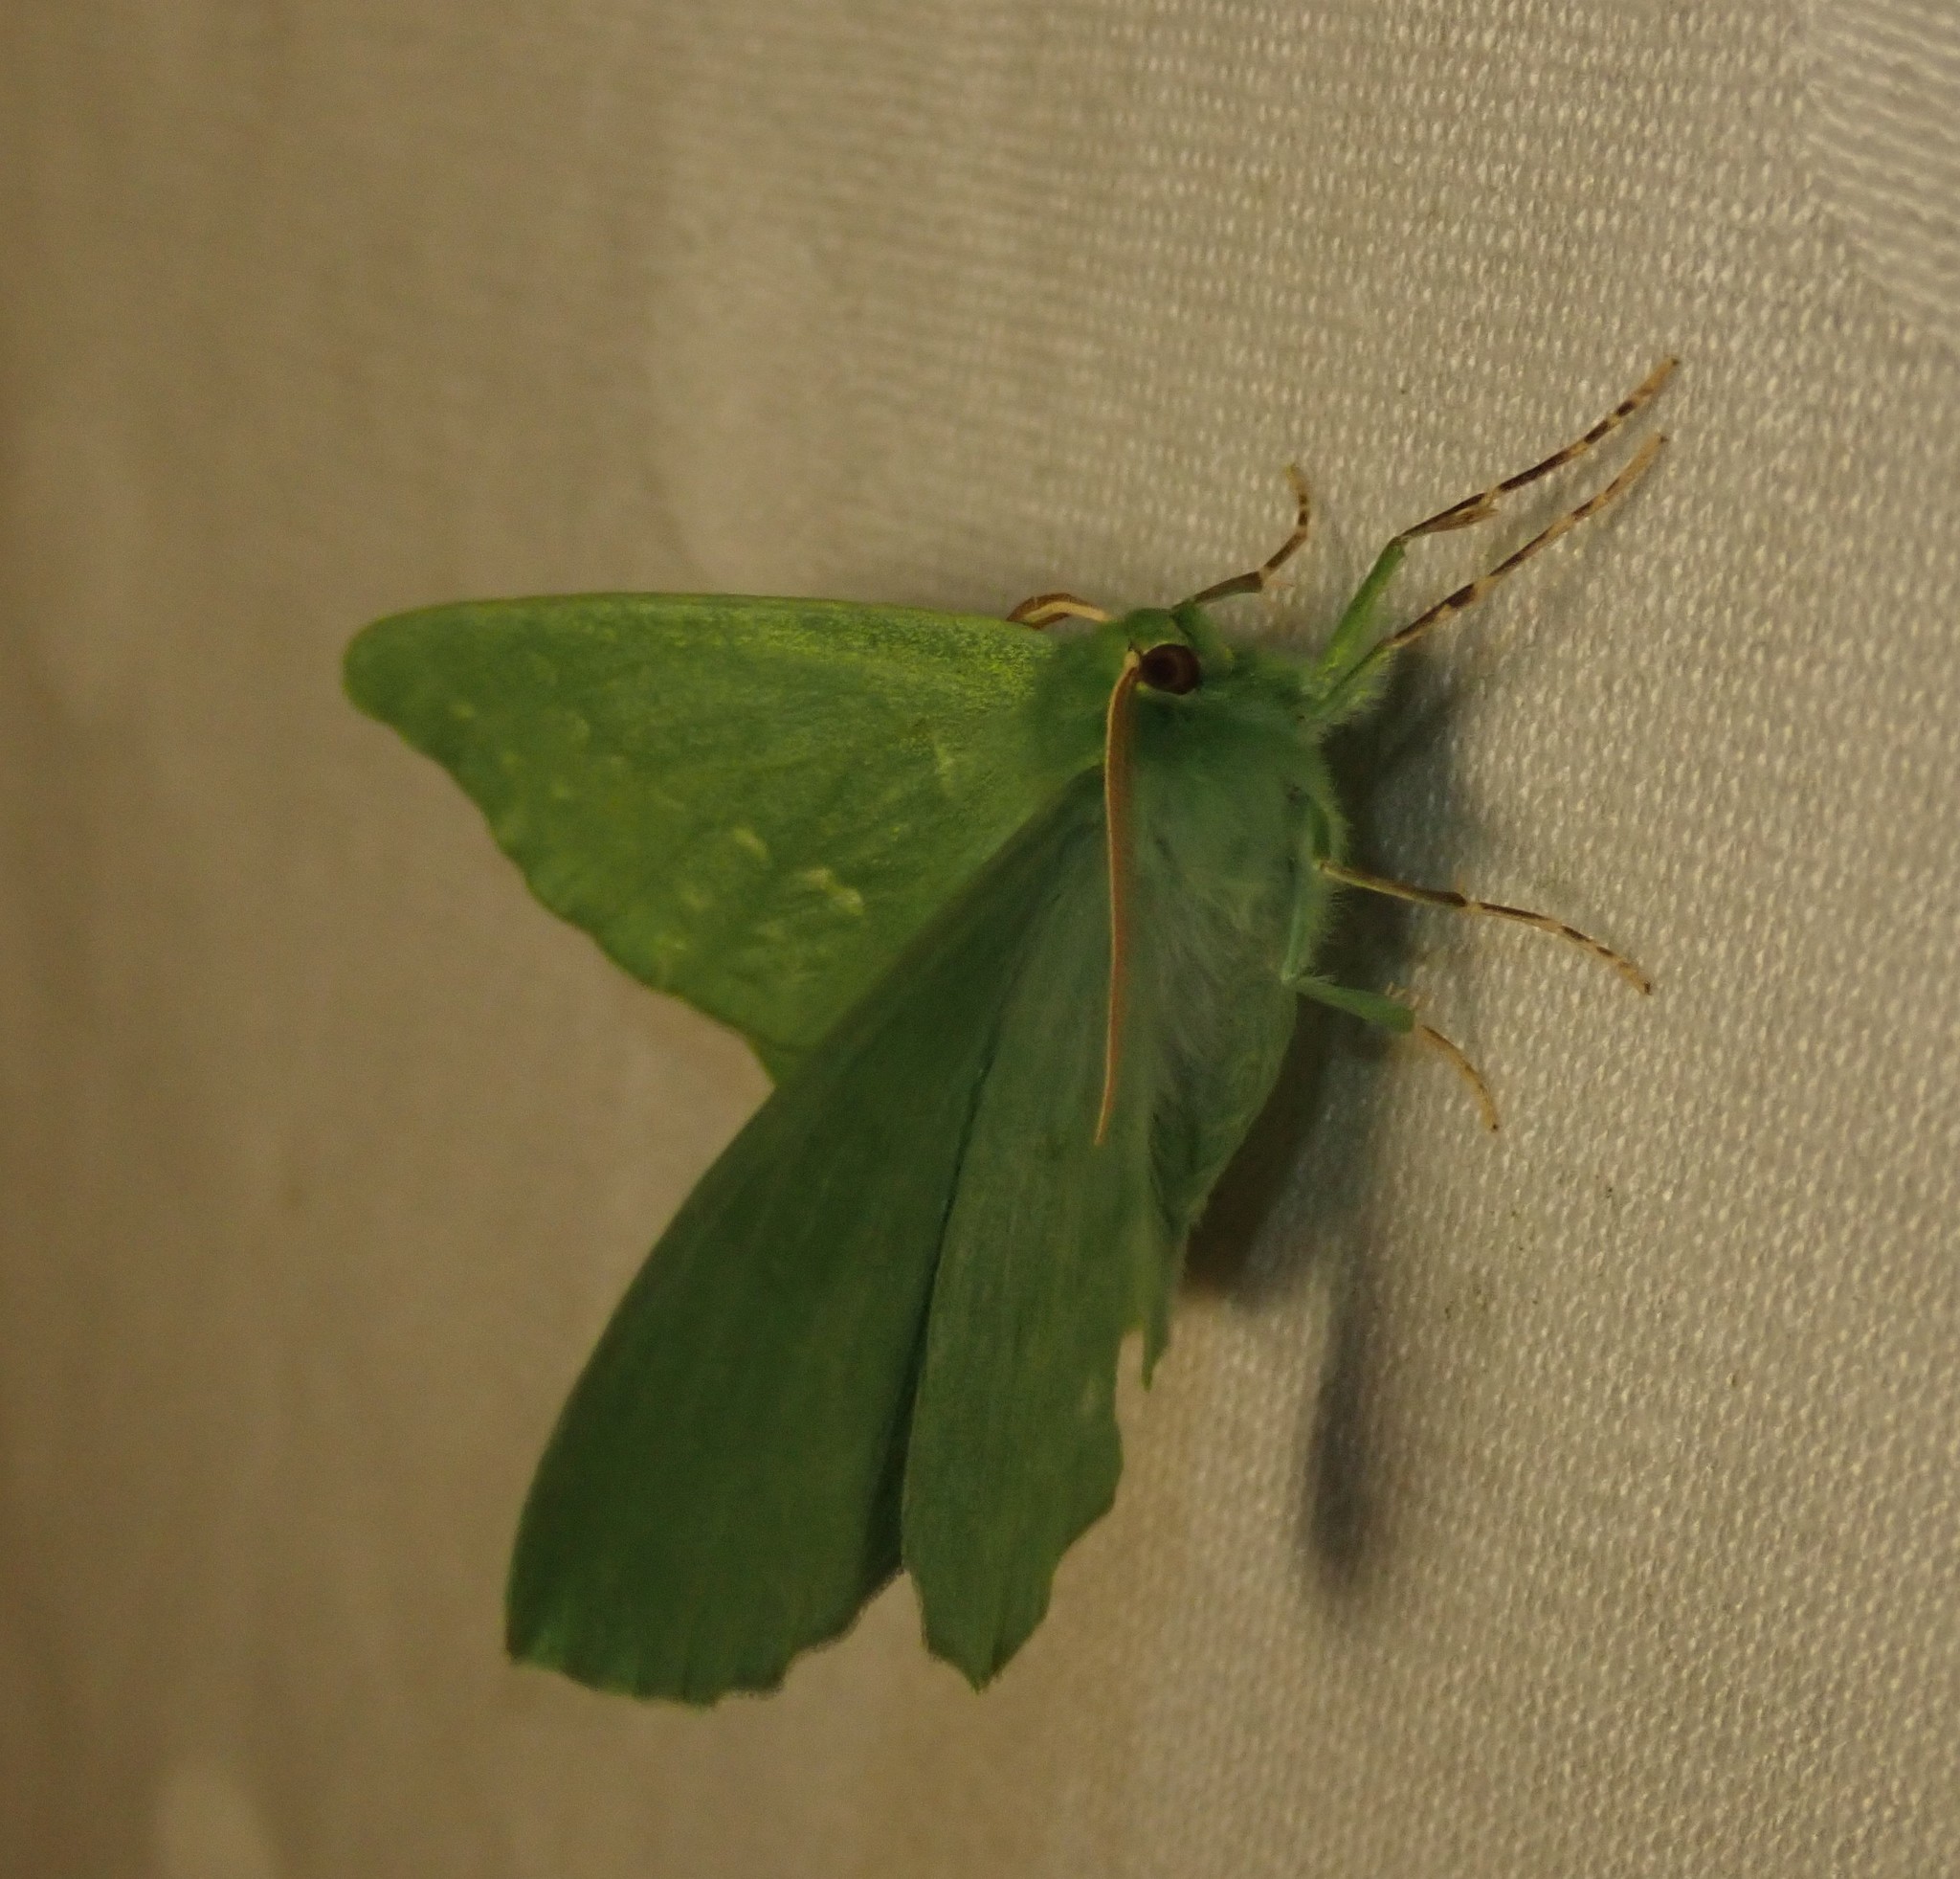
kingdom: Animalia
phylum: Arthropoda
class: Insecta
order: Lepidoptera
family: Geometridae
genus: Geometra
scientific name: Geometra papilionaria
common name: Large emerald
